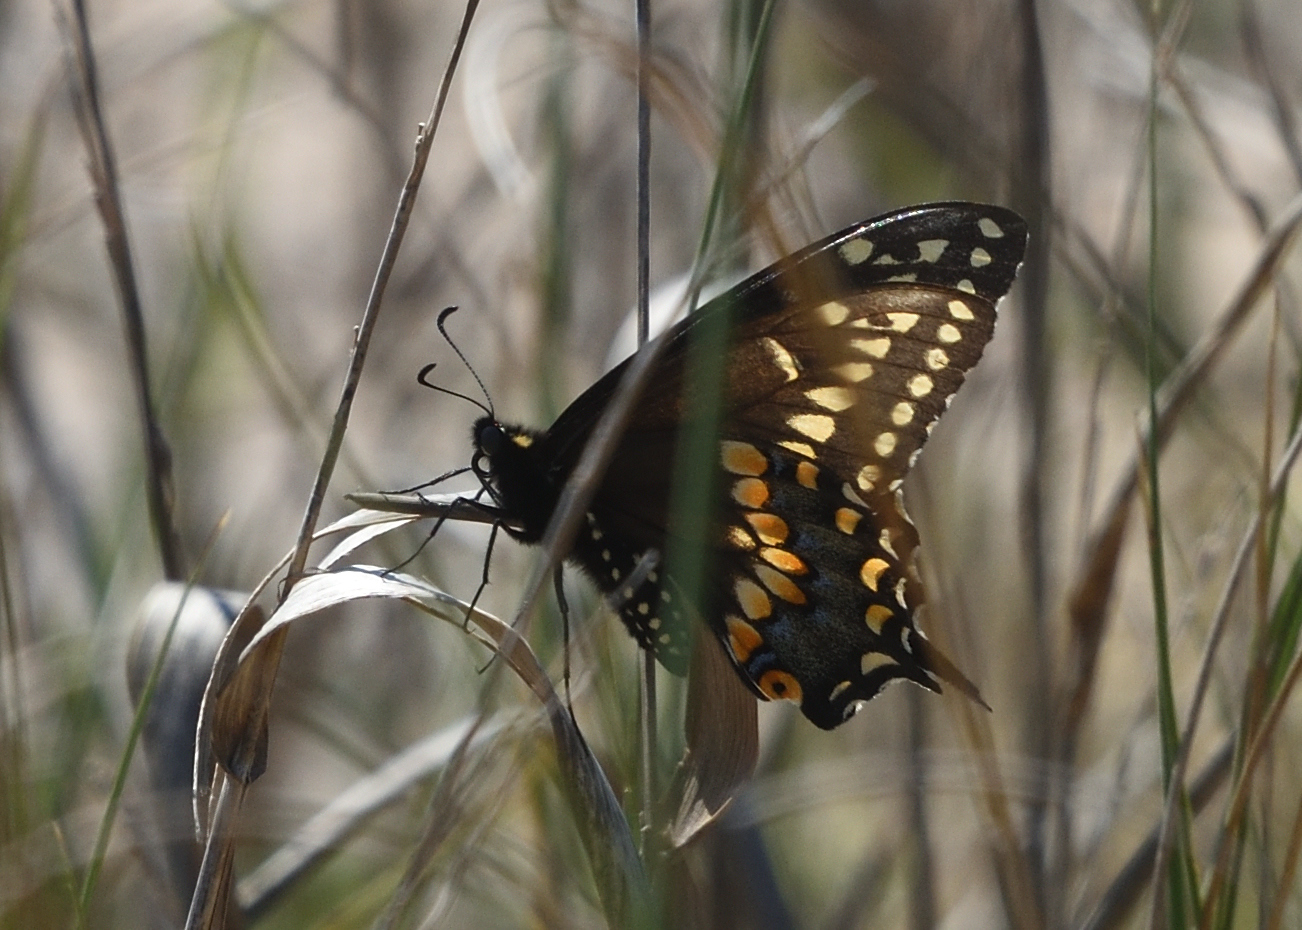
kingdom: Animalia
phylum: Arthropoda
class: Insecta
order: Lepidoptera
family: Papilionidae
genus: Papilio
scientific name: Papilio polyxenes
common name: Black swallowtail
